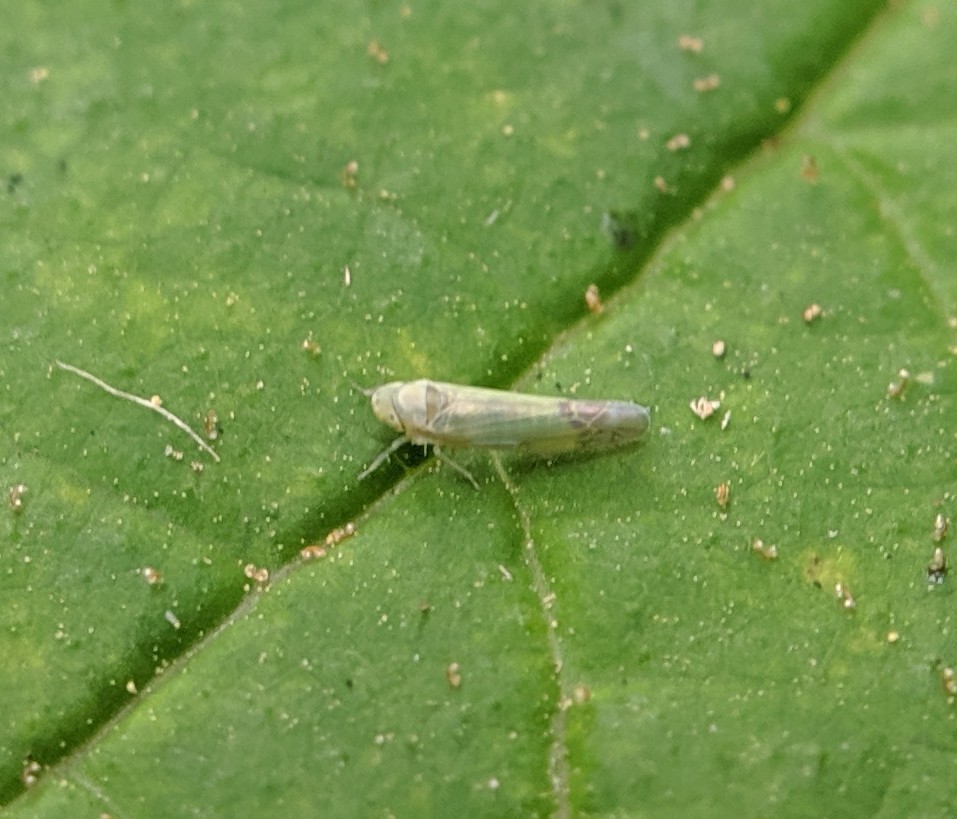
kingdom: Animalia
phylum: Arthropoda
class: Insecta
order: Hemiptera
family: Cicadellidae
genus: Eupteryx
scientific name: Eupteryx filicum
